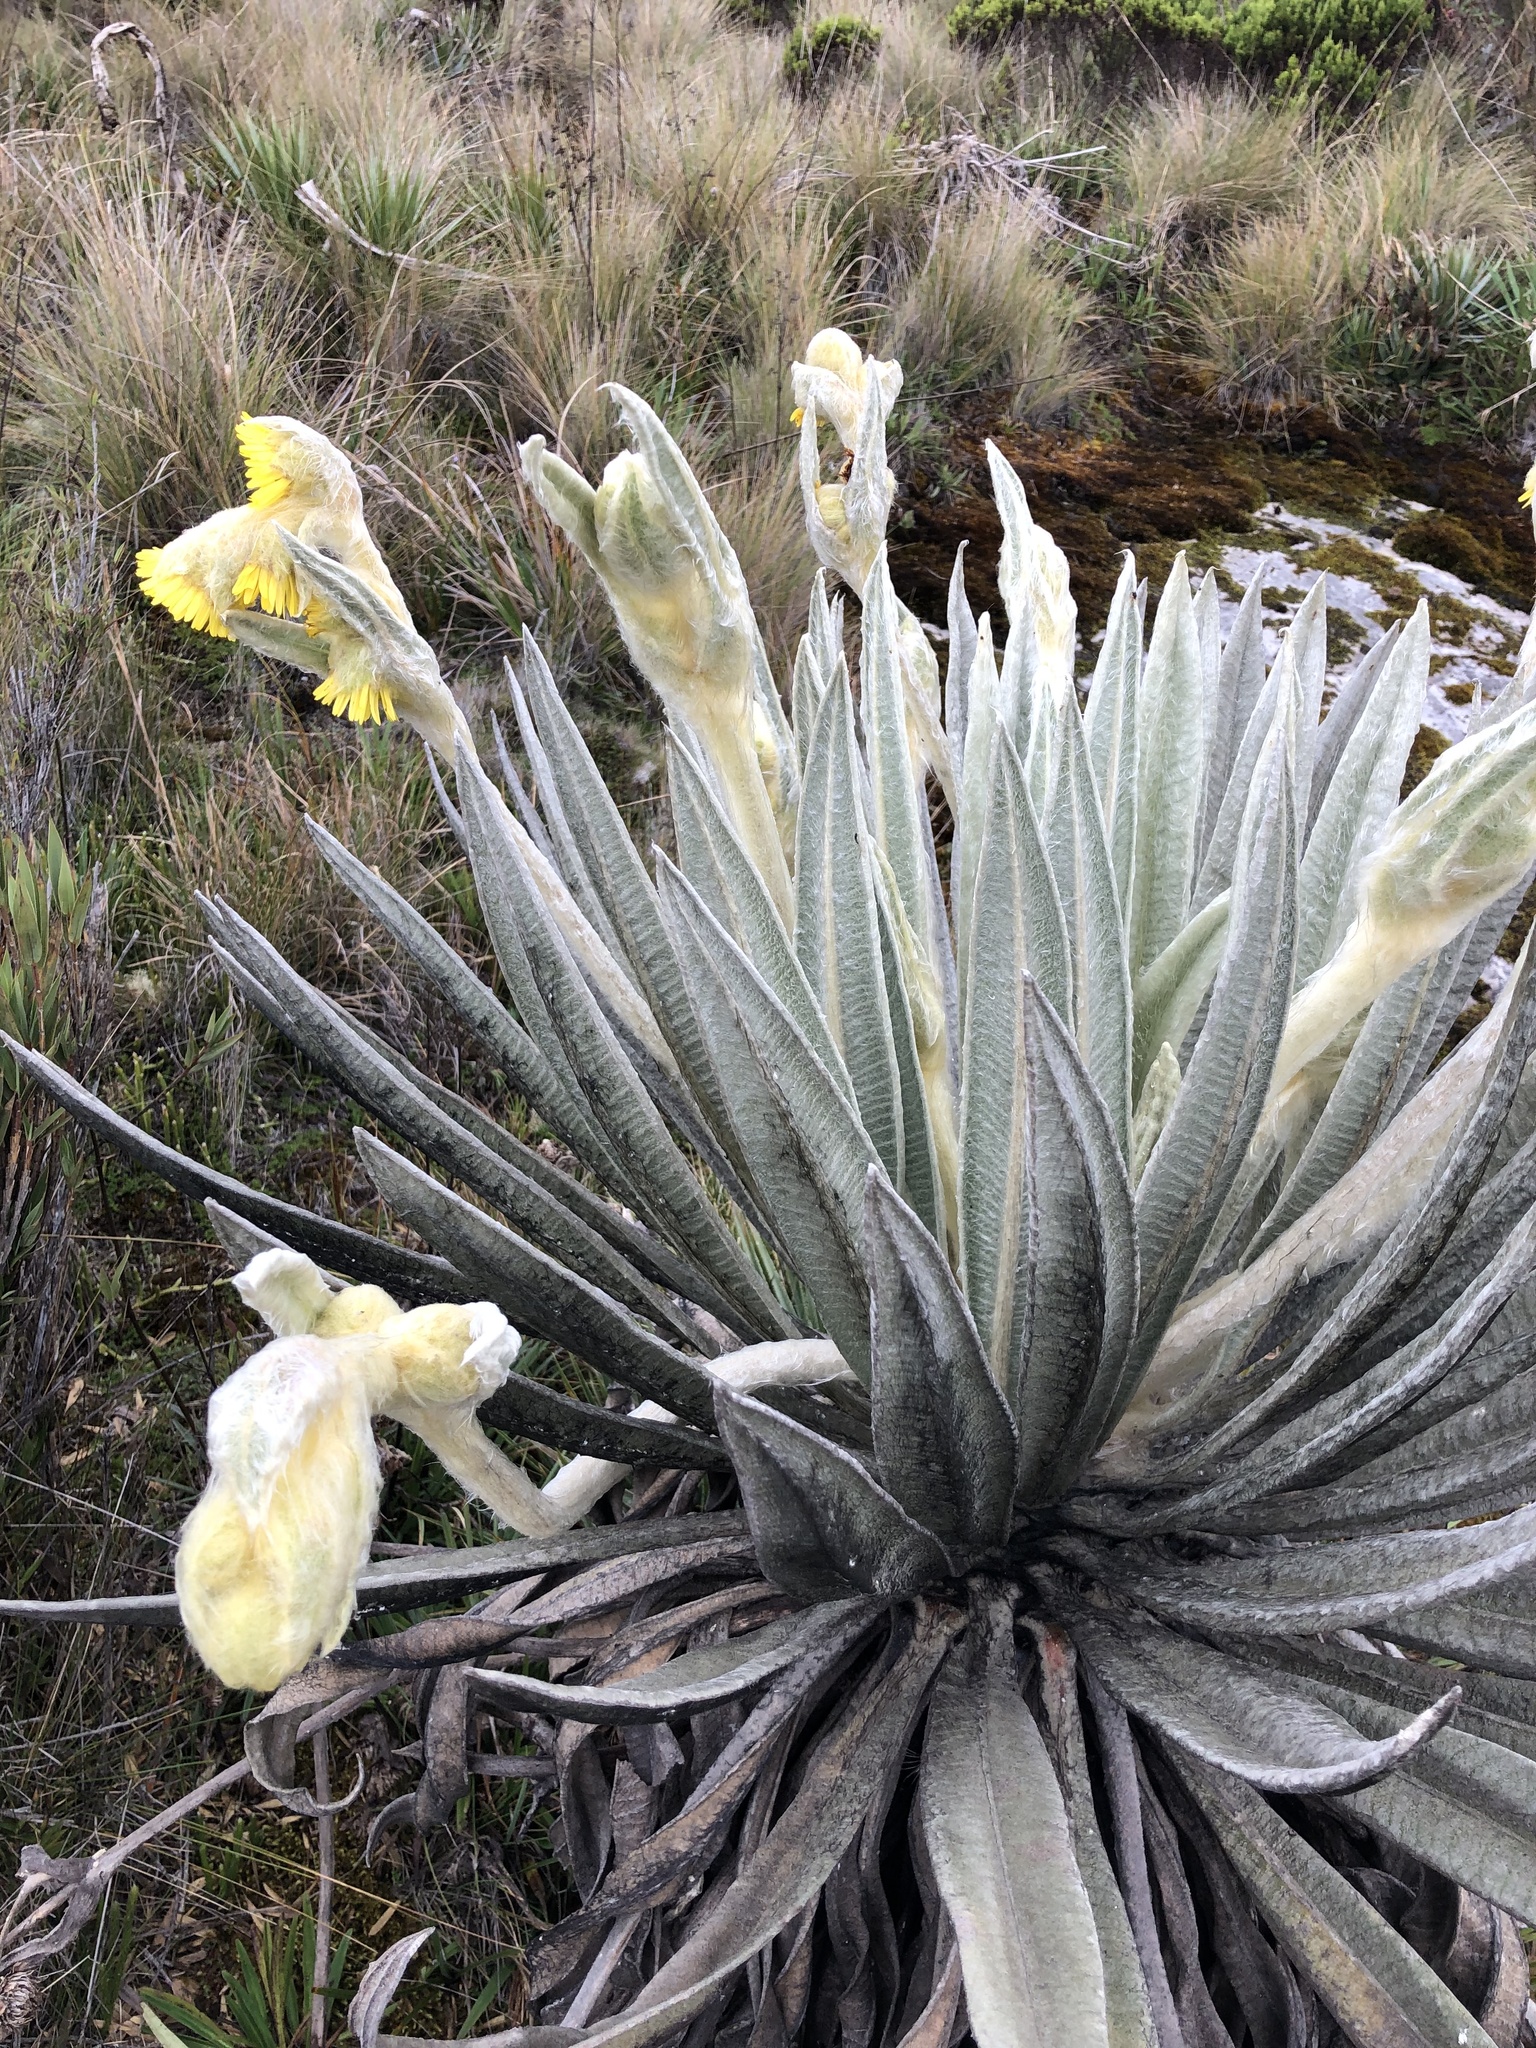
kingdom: Plantae
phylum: Tracheophyta
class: Magnoliopsida
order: Asterales
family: Asteraceae
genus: Espeletia
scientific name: Espeletia grandiflora
